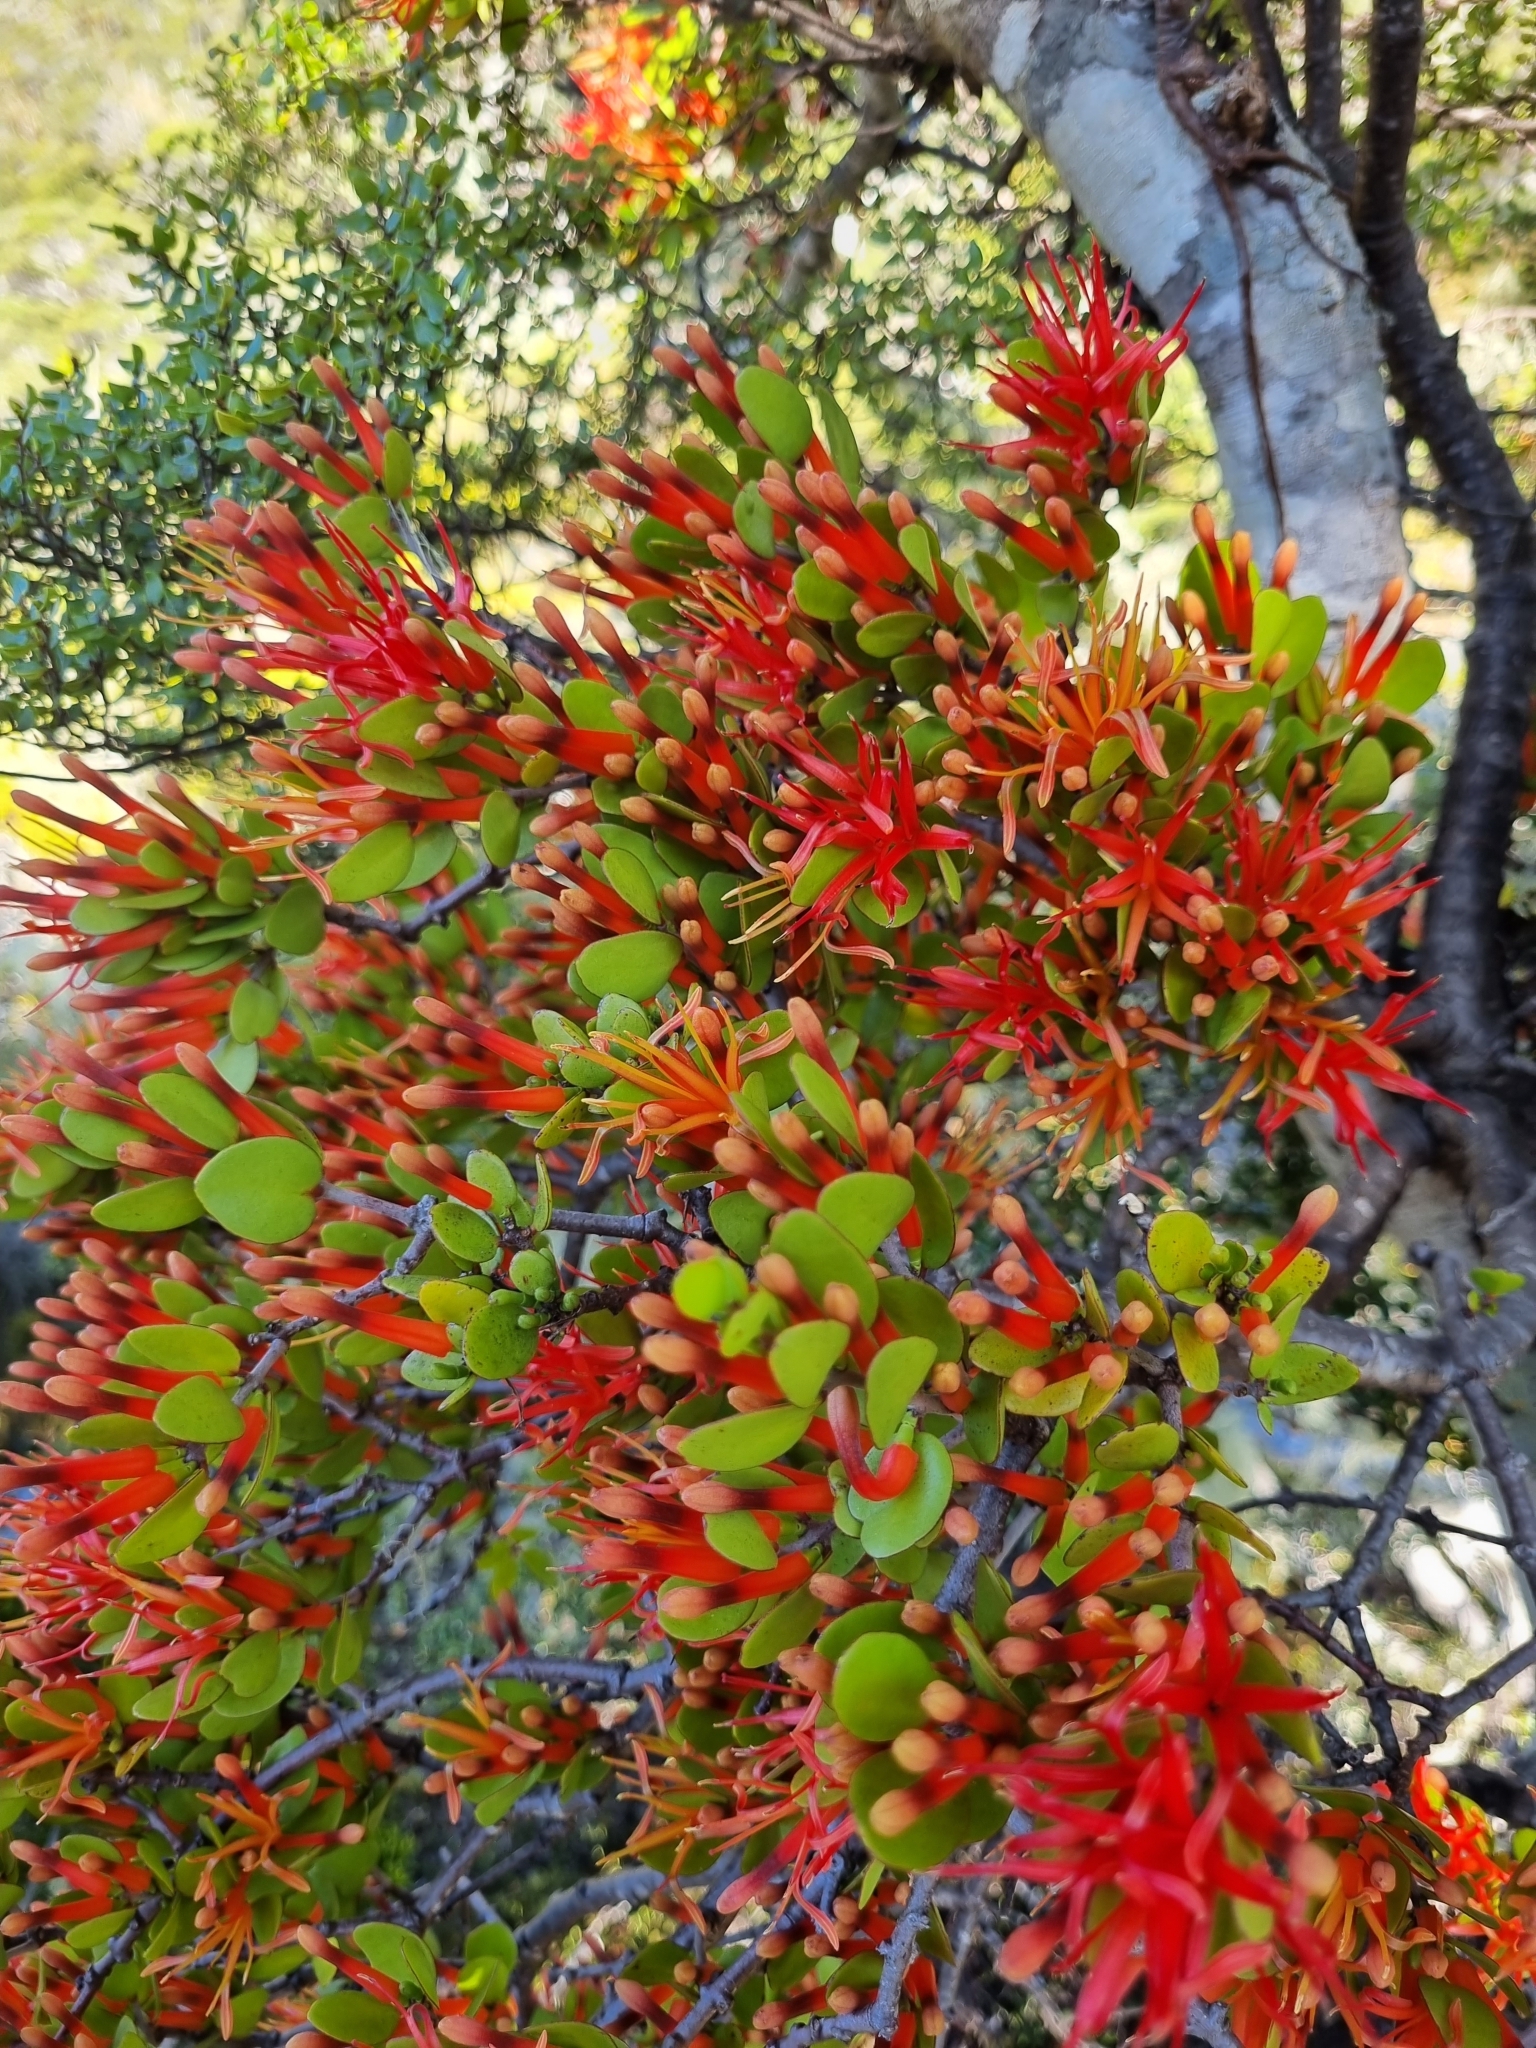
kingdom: Plantae
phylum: Tracheophyta
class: Magnoliopsida
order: Santalales
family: Loranthaceae
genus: Peraxilla
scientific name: Peraxilla tetrapetala
